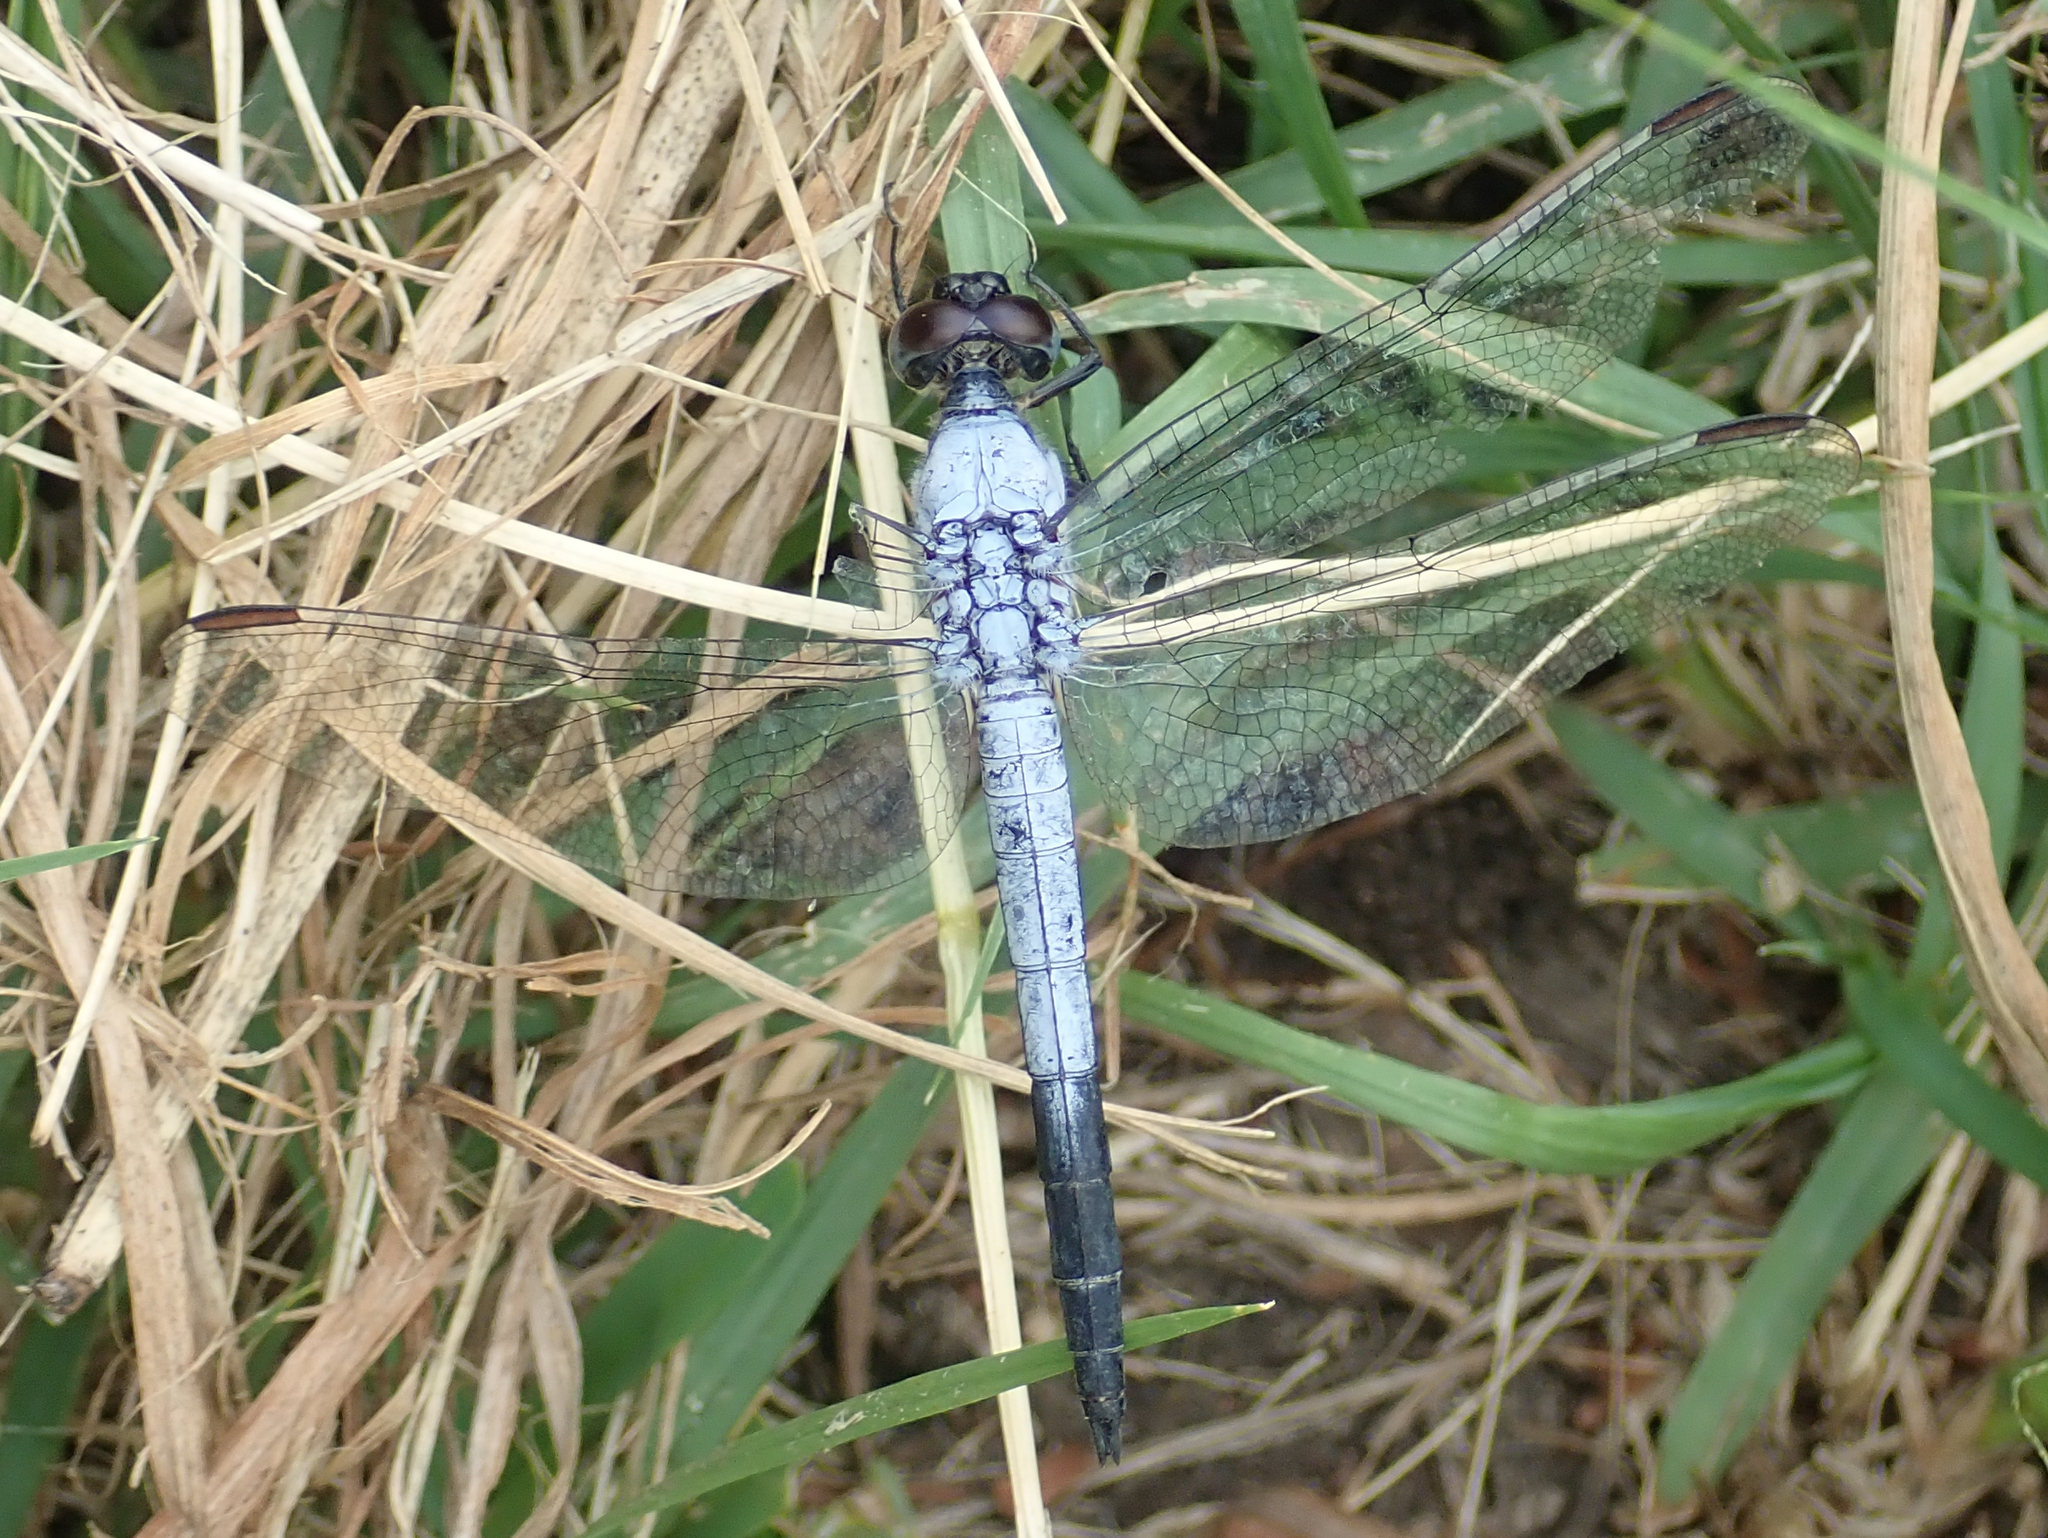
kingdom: Animalia
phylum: Arthropoda
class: Insecta
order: Odonata
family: Libellulidae
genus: Nesciothemis
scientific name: Nesciothemis farinosa
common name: Eastern blacktail
